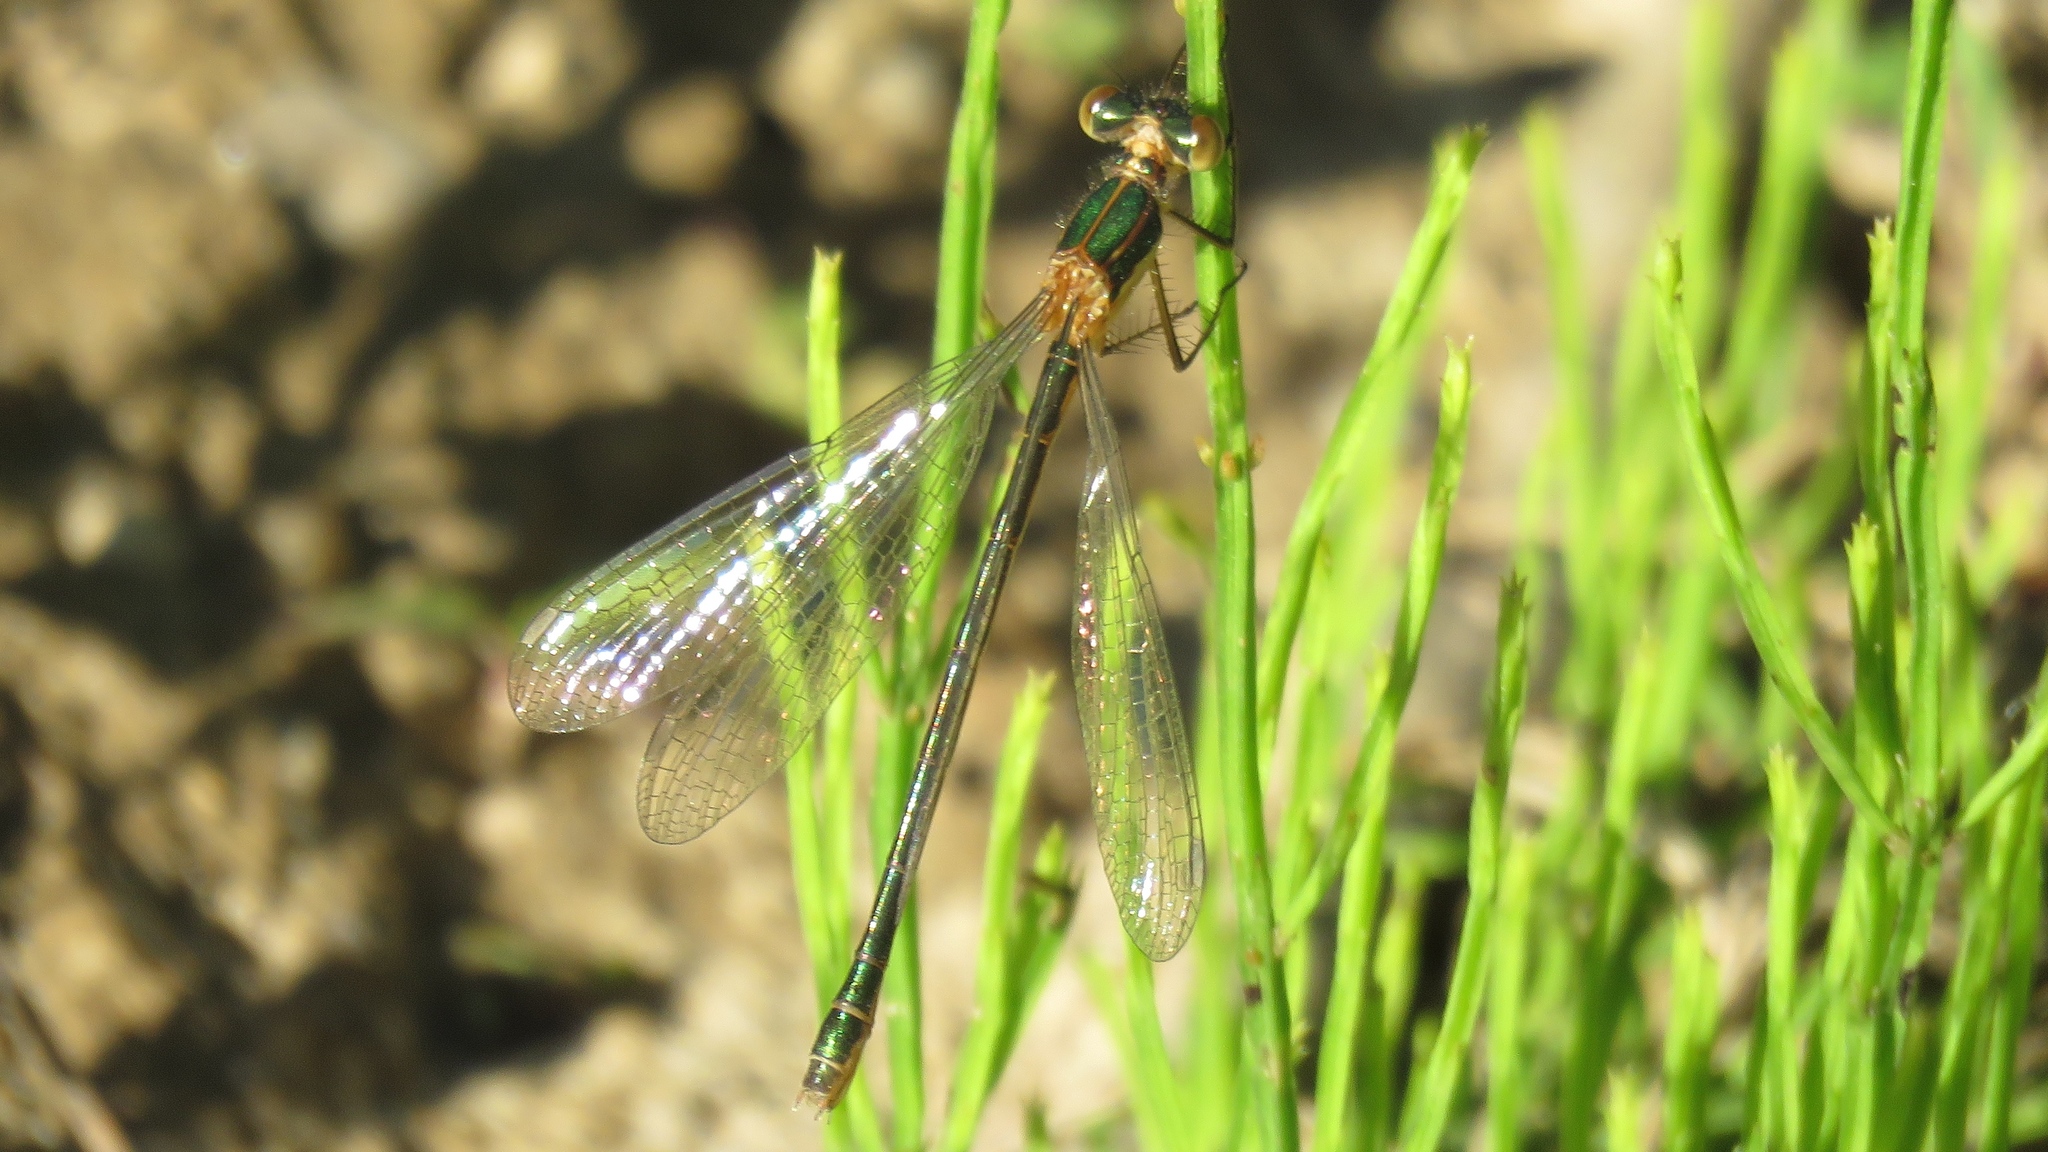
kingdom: Animalia
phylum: Arthropoda
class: Insecta
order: Odonata
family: Lestidae
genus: Lestes
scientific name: Lestes dryas
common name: Scarce emerald damselfly
